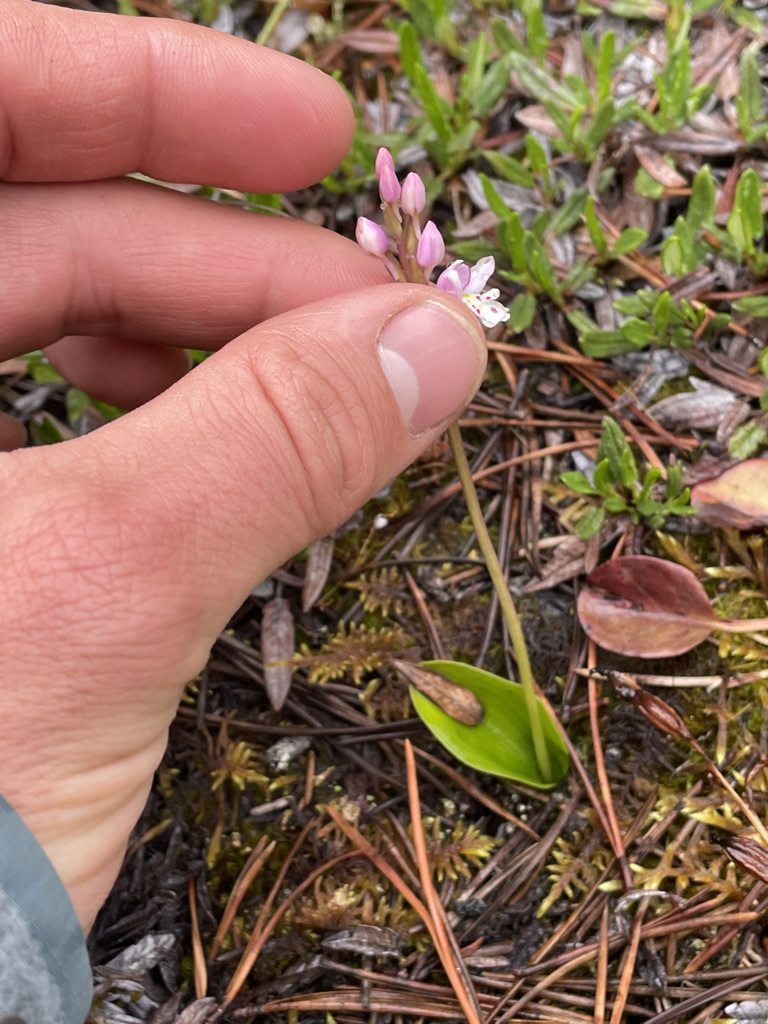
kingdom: Plantae
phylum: Tracheophyta
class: Liliopsida
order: Asparagales
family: Orchidaceae
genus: Galearis
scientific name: Galearis rotundifolia
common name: One-leaved orchis
